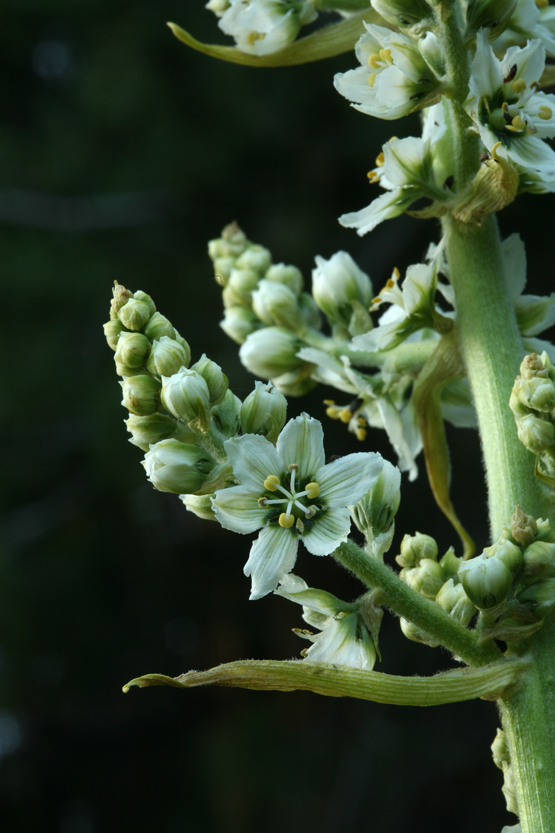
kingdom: Plantae
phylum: Tracheophyta
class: Liliopsida
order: Liliales
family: Melanthiaceae
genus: Veratrum
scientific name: Veratrum californicum
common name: California veratrum
